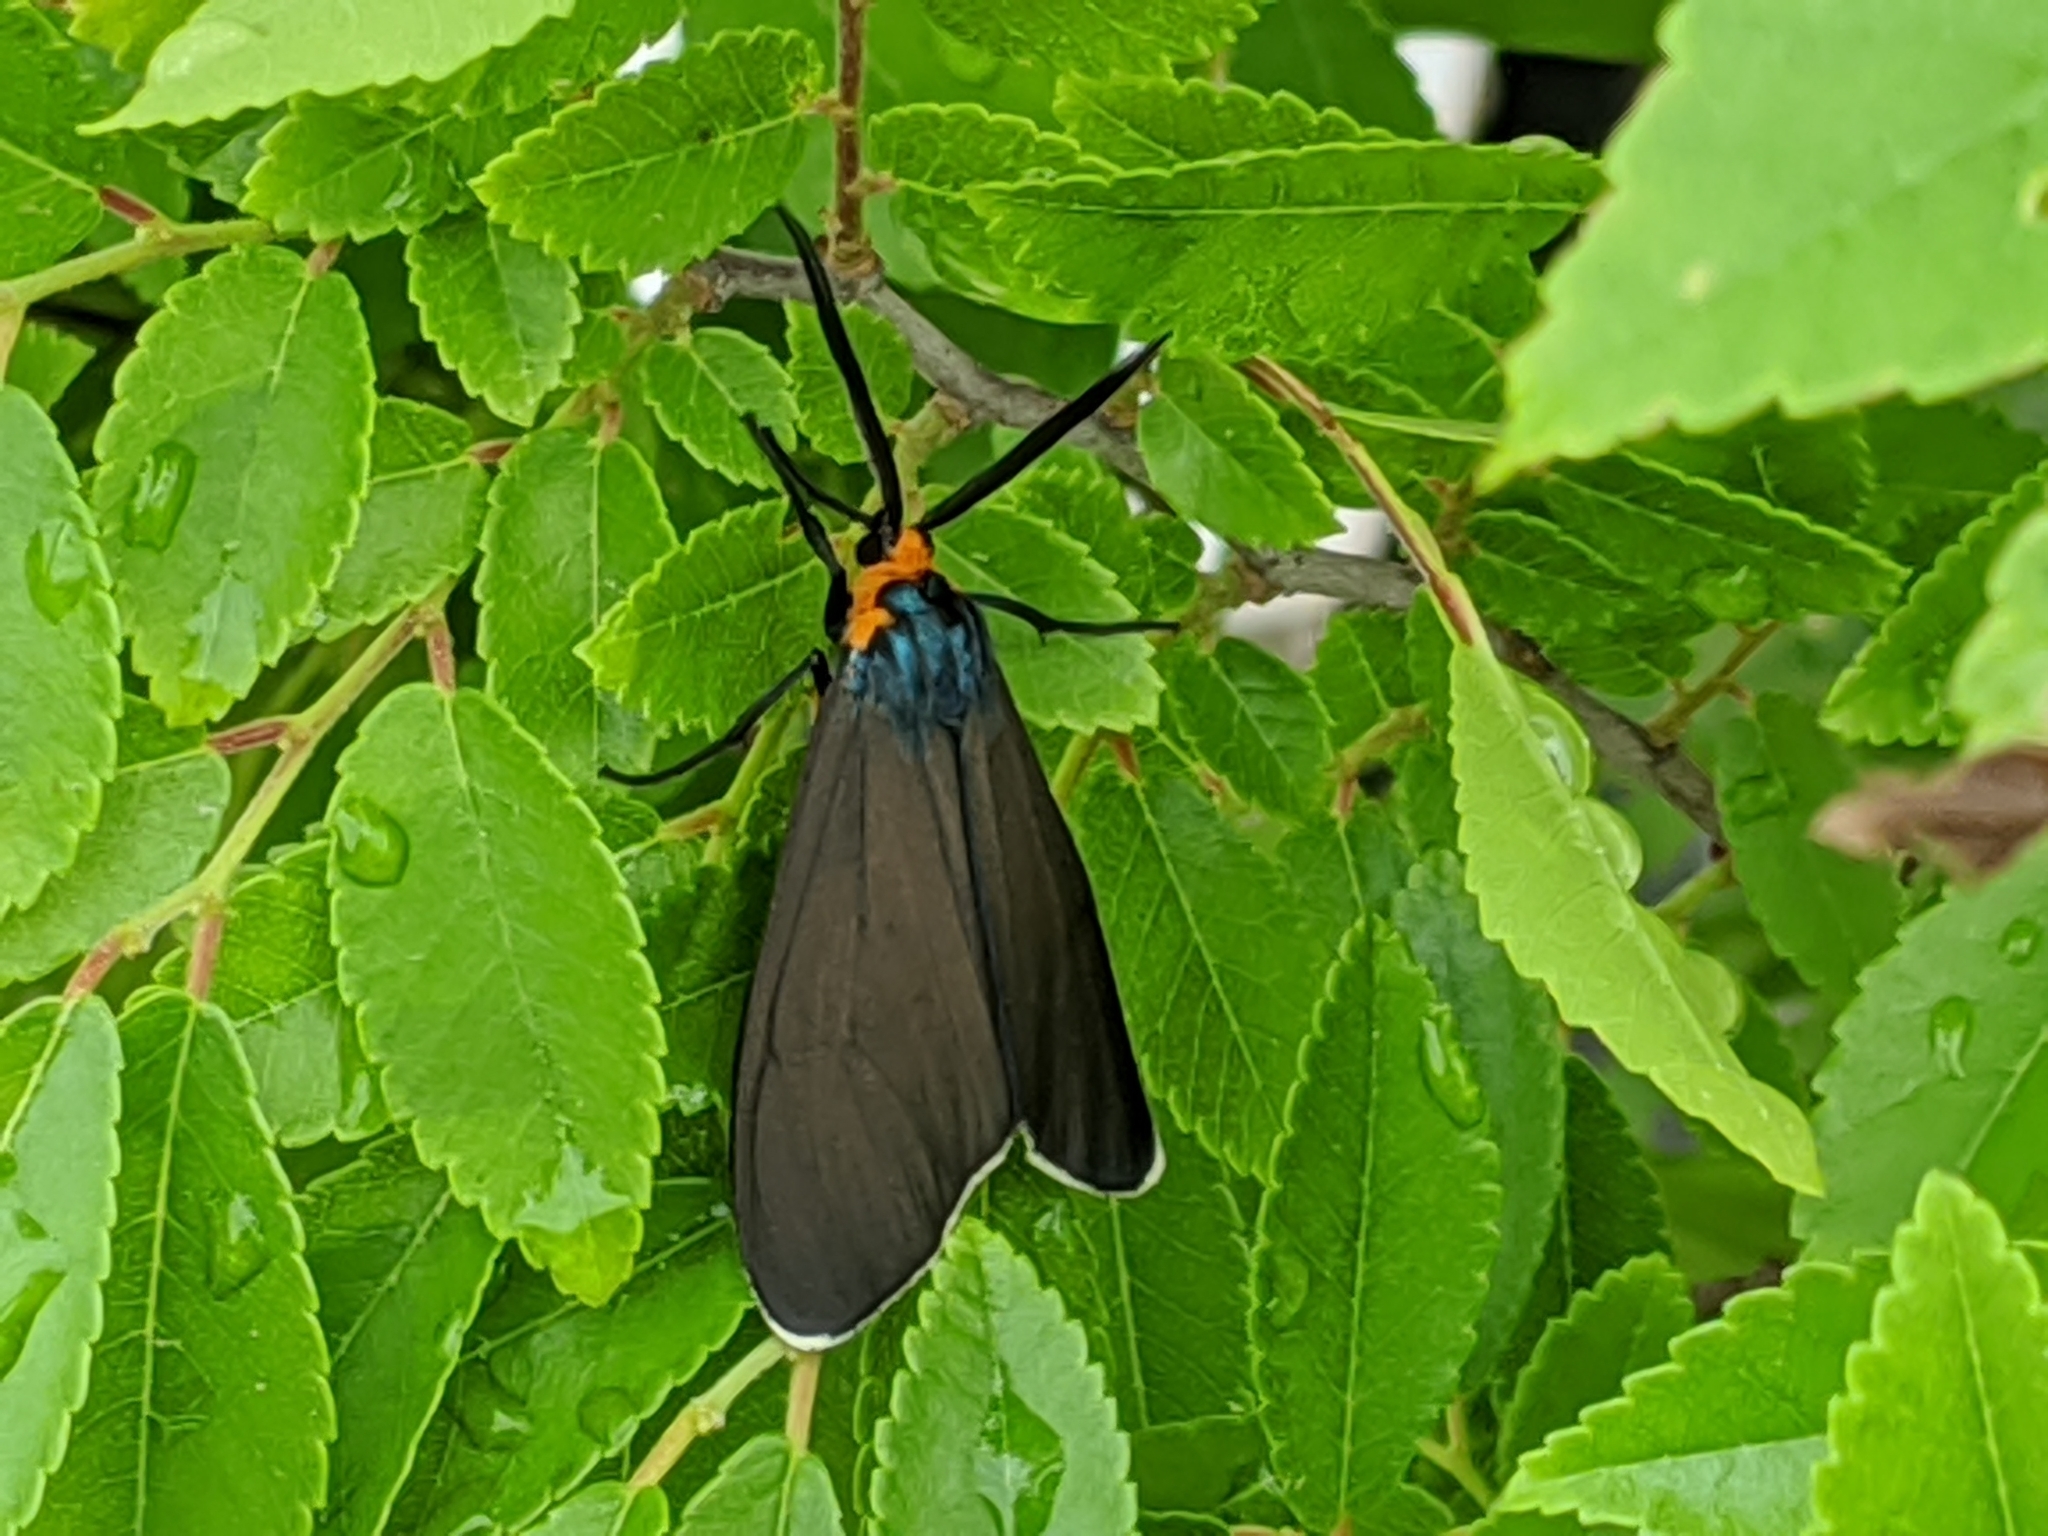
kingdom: Animalia
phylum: Arthropoda
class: Insecta
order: Lepidoptera
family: Erebidae
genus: Ctenucha
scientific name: Ctenucha virginica
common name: Virginia ctenucha moth
